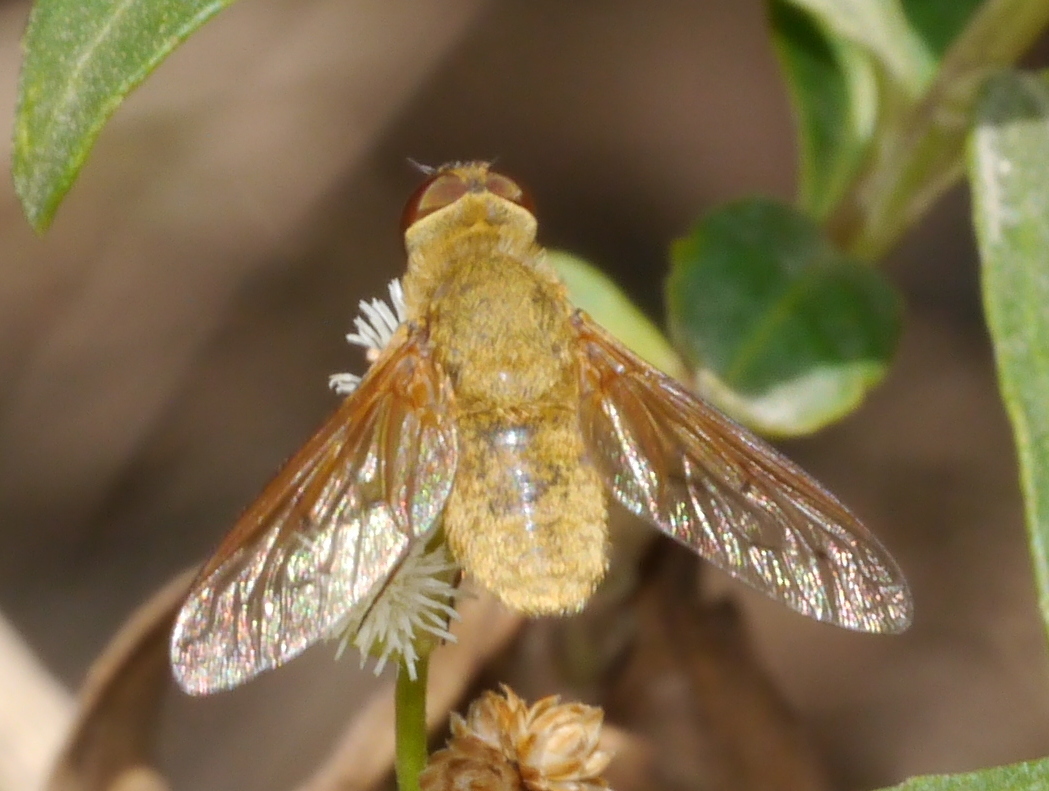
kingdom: Animalia
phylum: Arthropoda
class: Insecta
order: Diptera
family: Bombyliidae
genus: Chrysanthrax
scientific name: Chrysanthrax edititius
